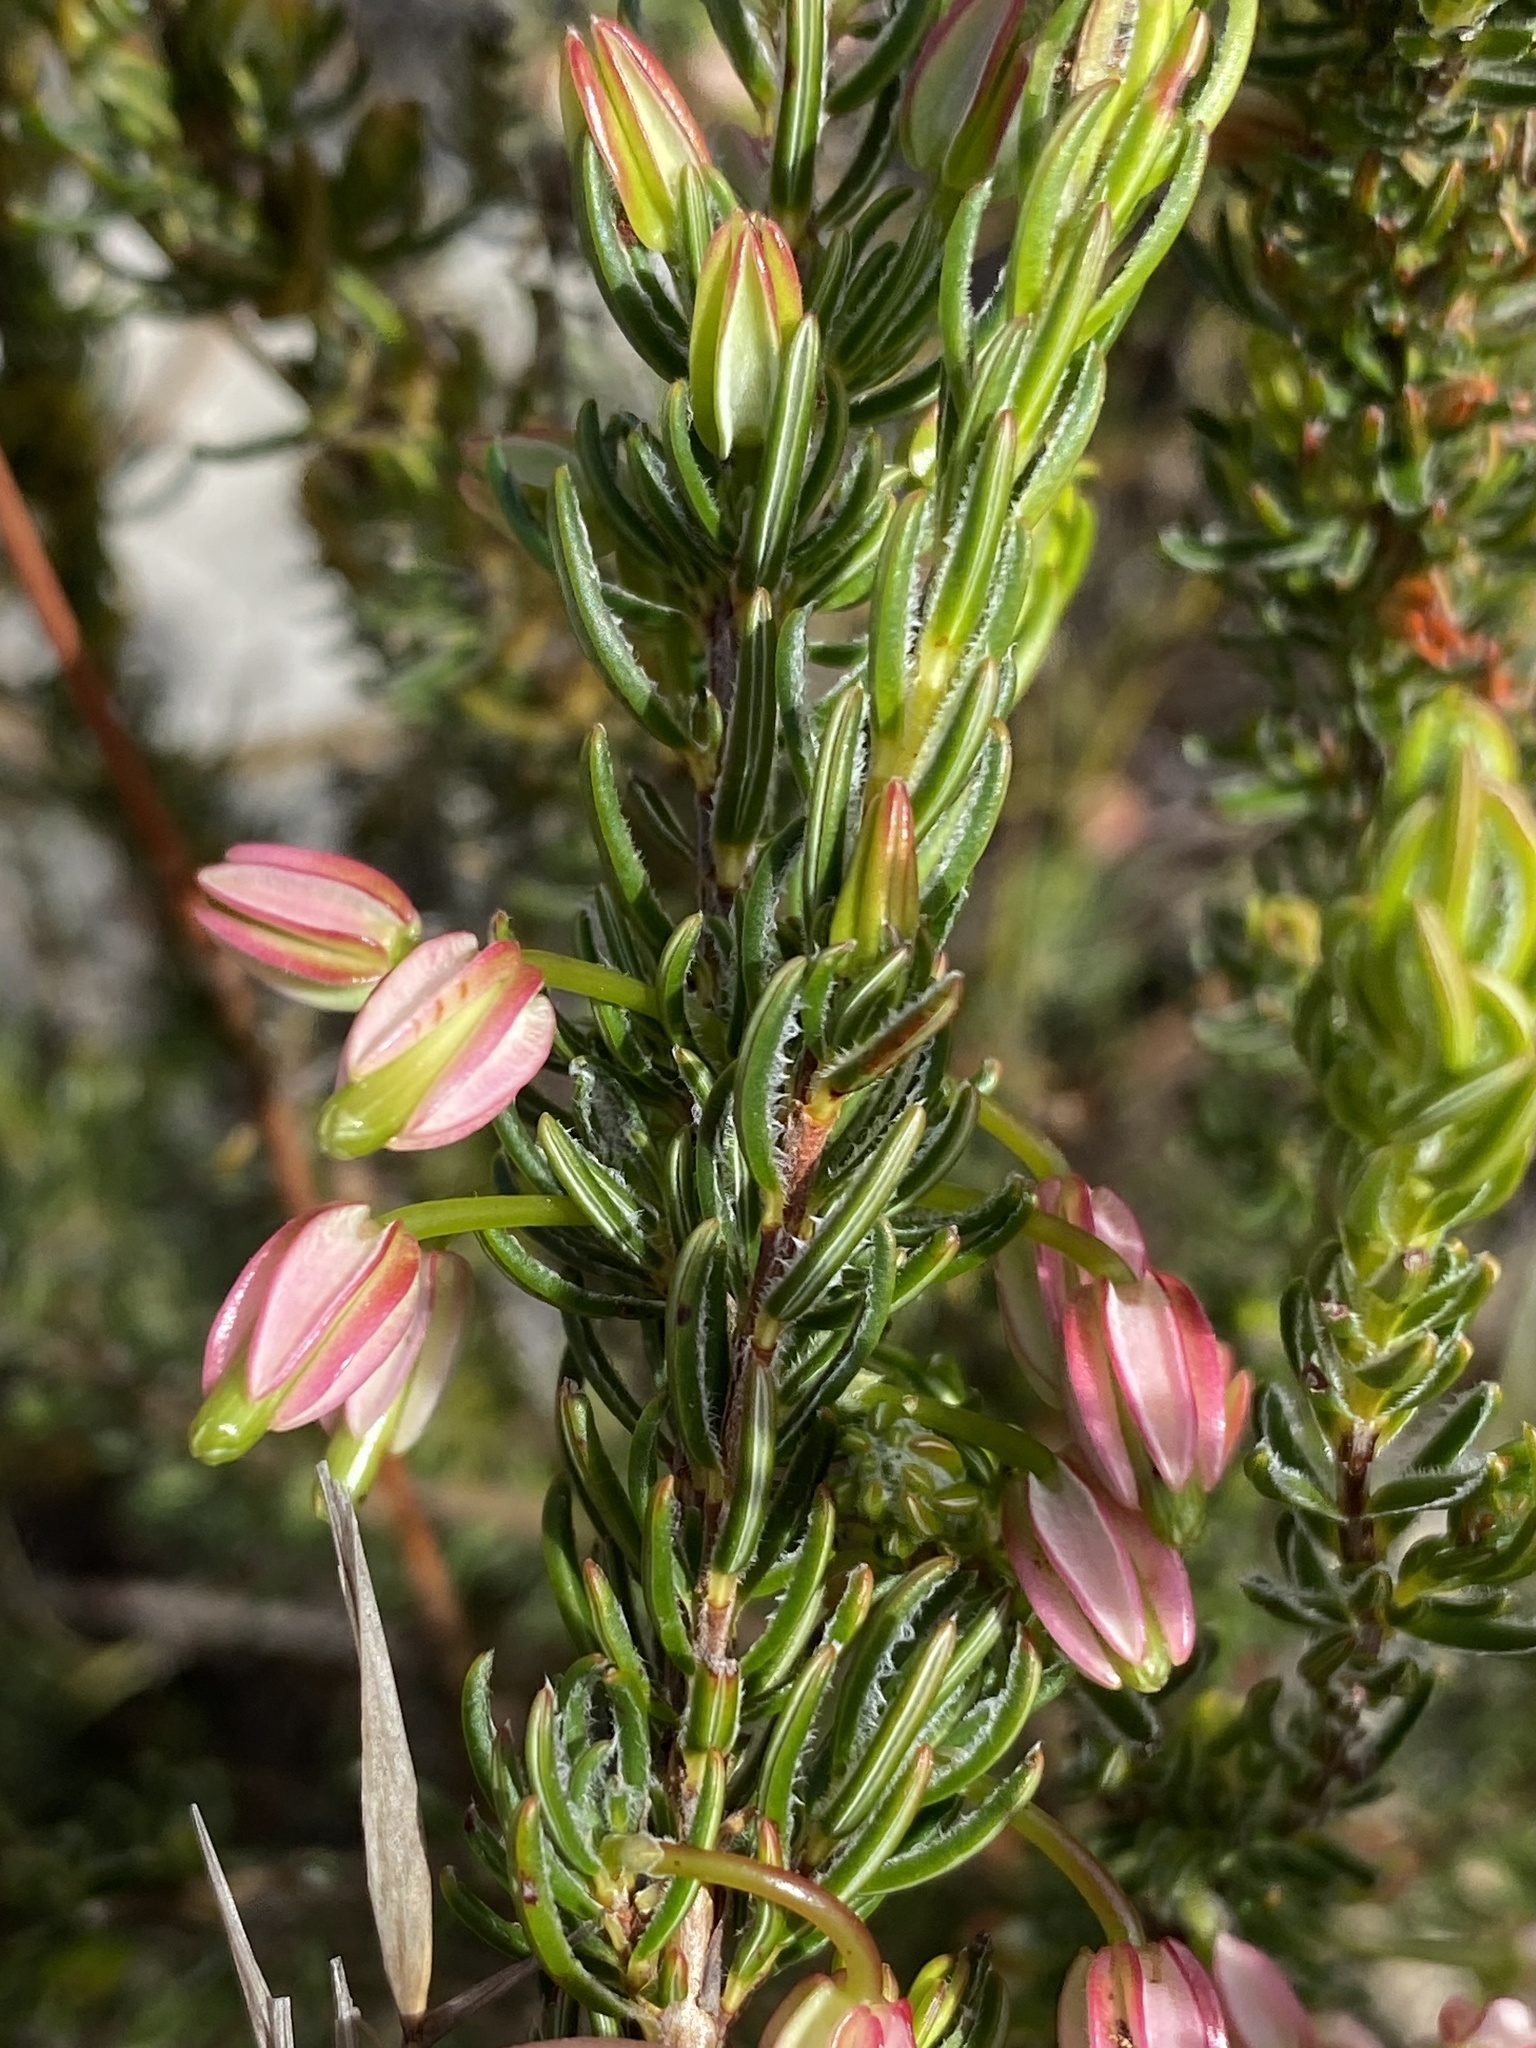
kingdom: Plantae
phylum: Tracheophyta
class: Magnoliopsida
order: Ericales
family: Ericaceae
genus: Erica
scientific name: Erica plukenetii
